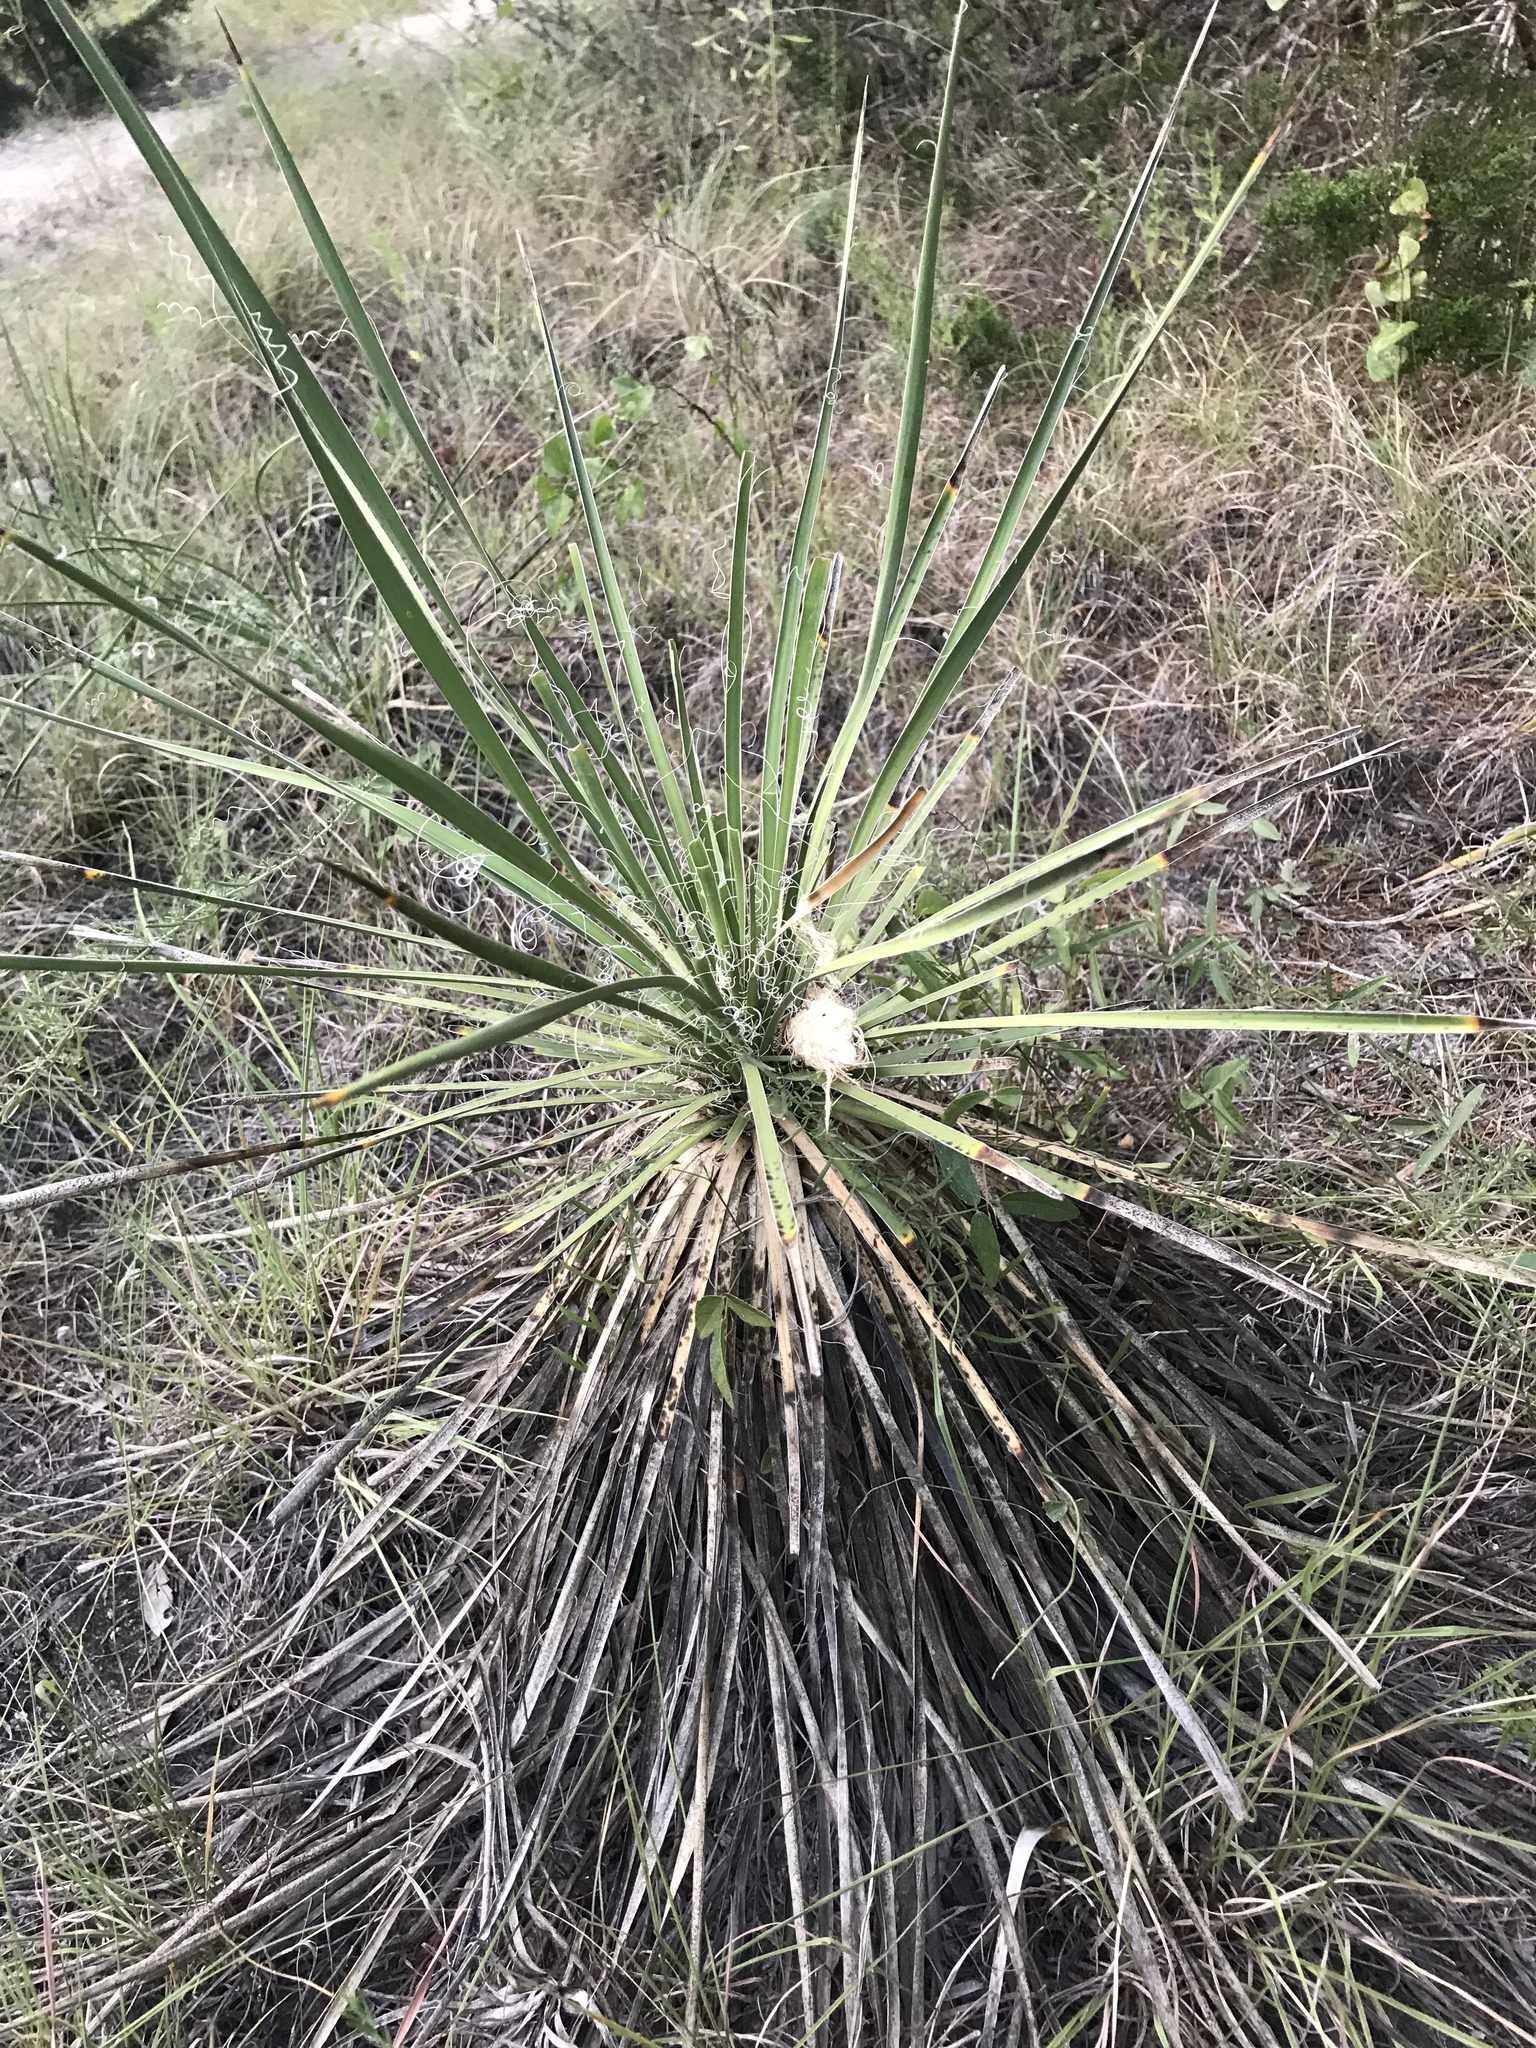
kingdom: Plantae
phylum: Tracheophyta
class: Liliopsida
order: Asparagales
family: Asparagaceae
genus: Yucca
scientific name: Yucca constricta
